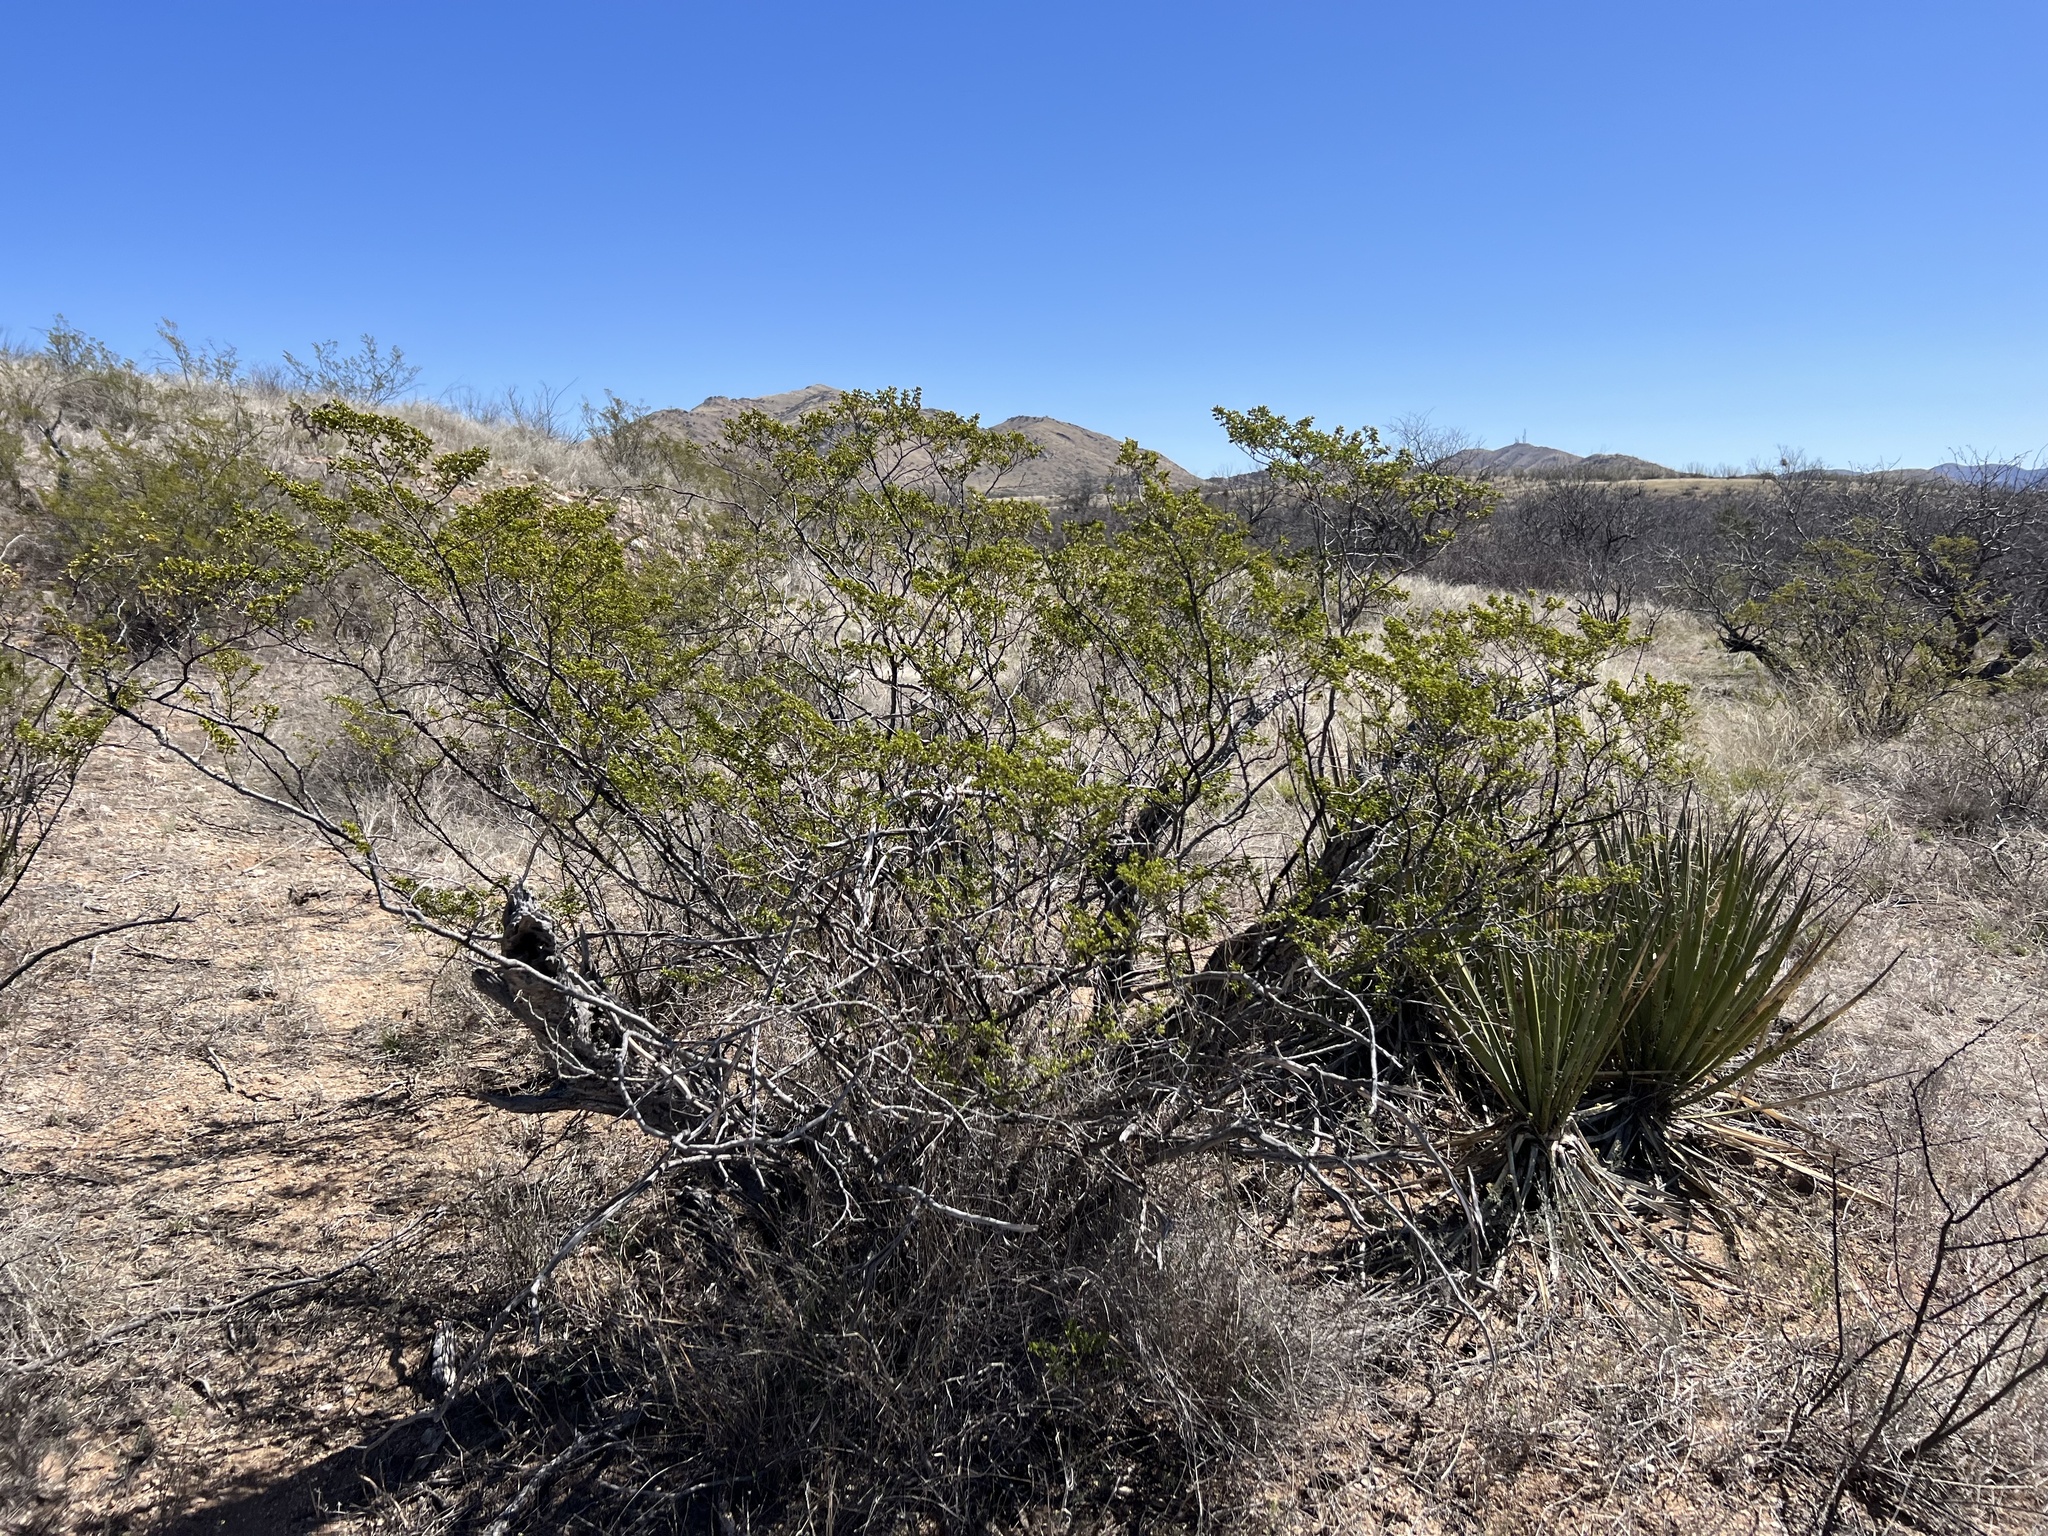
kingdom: Plantae
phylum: Tracheophyta
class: Magnoliopsida
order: Zygophyllales
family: Zygophyllaceae
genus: Larrea
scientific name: Larrea tridentata
